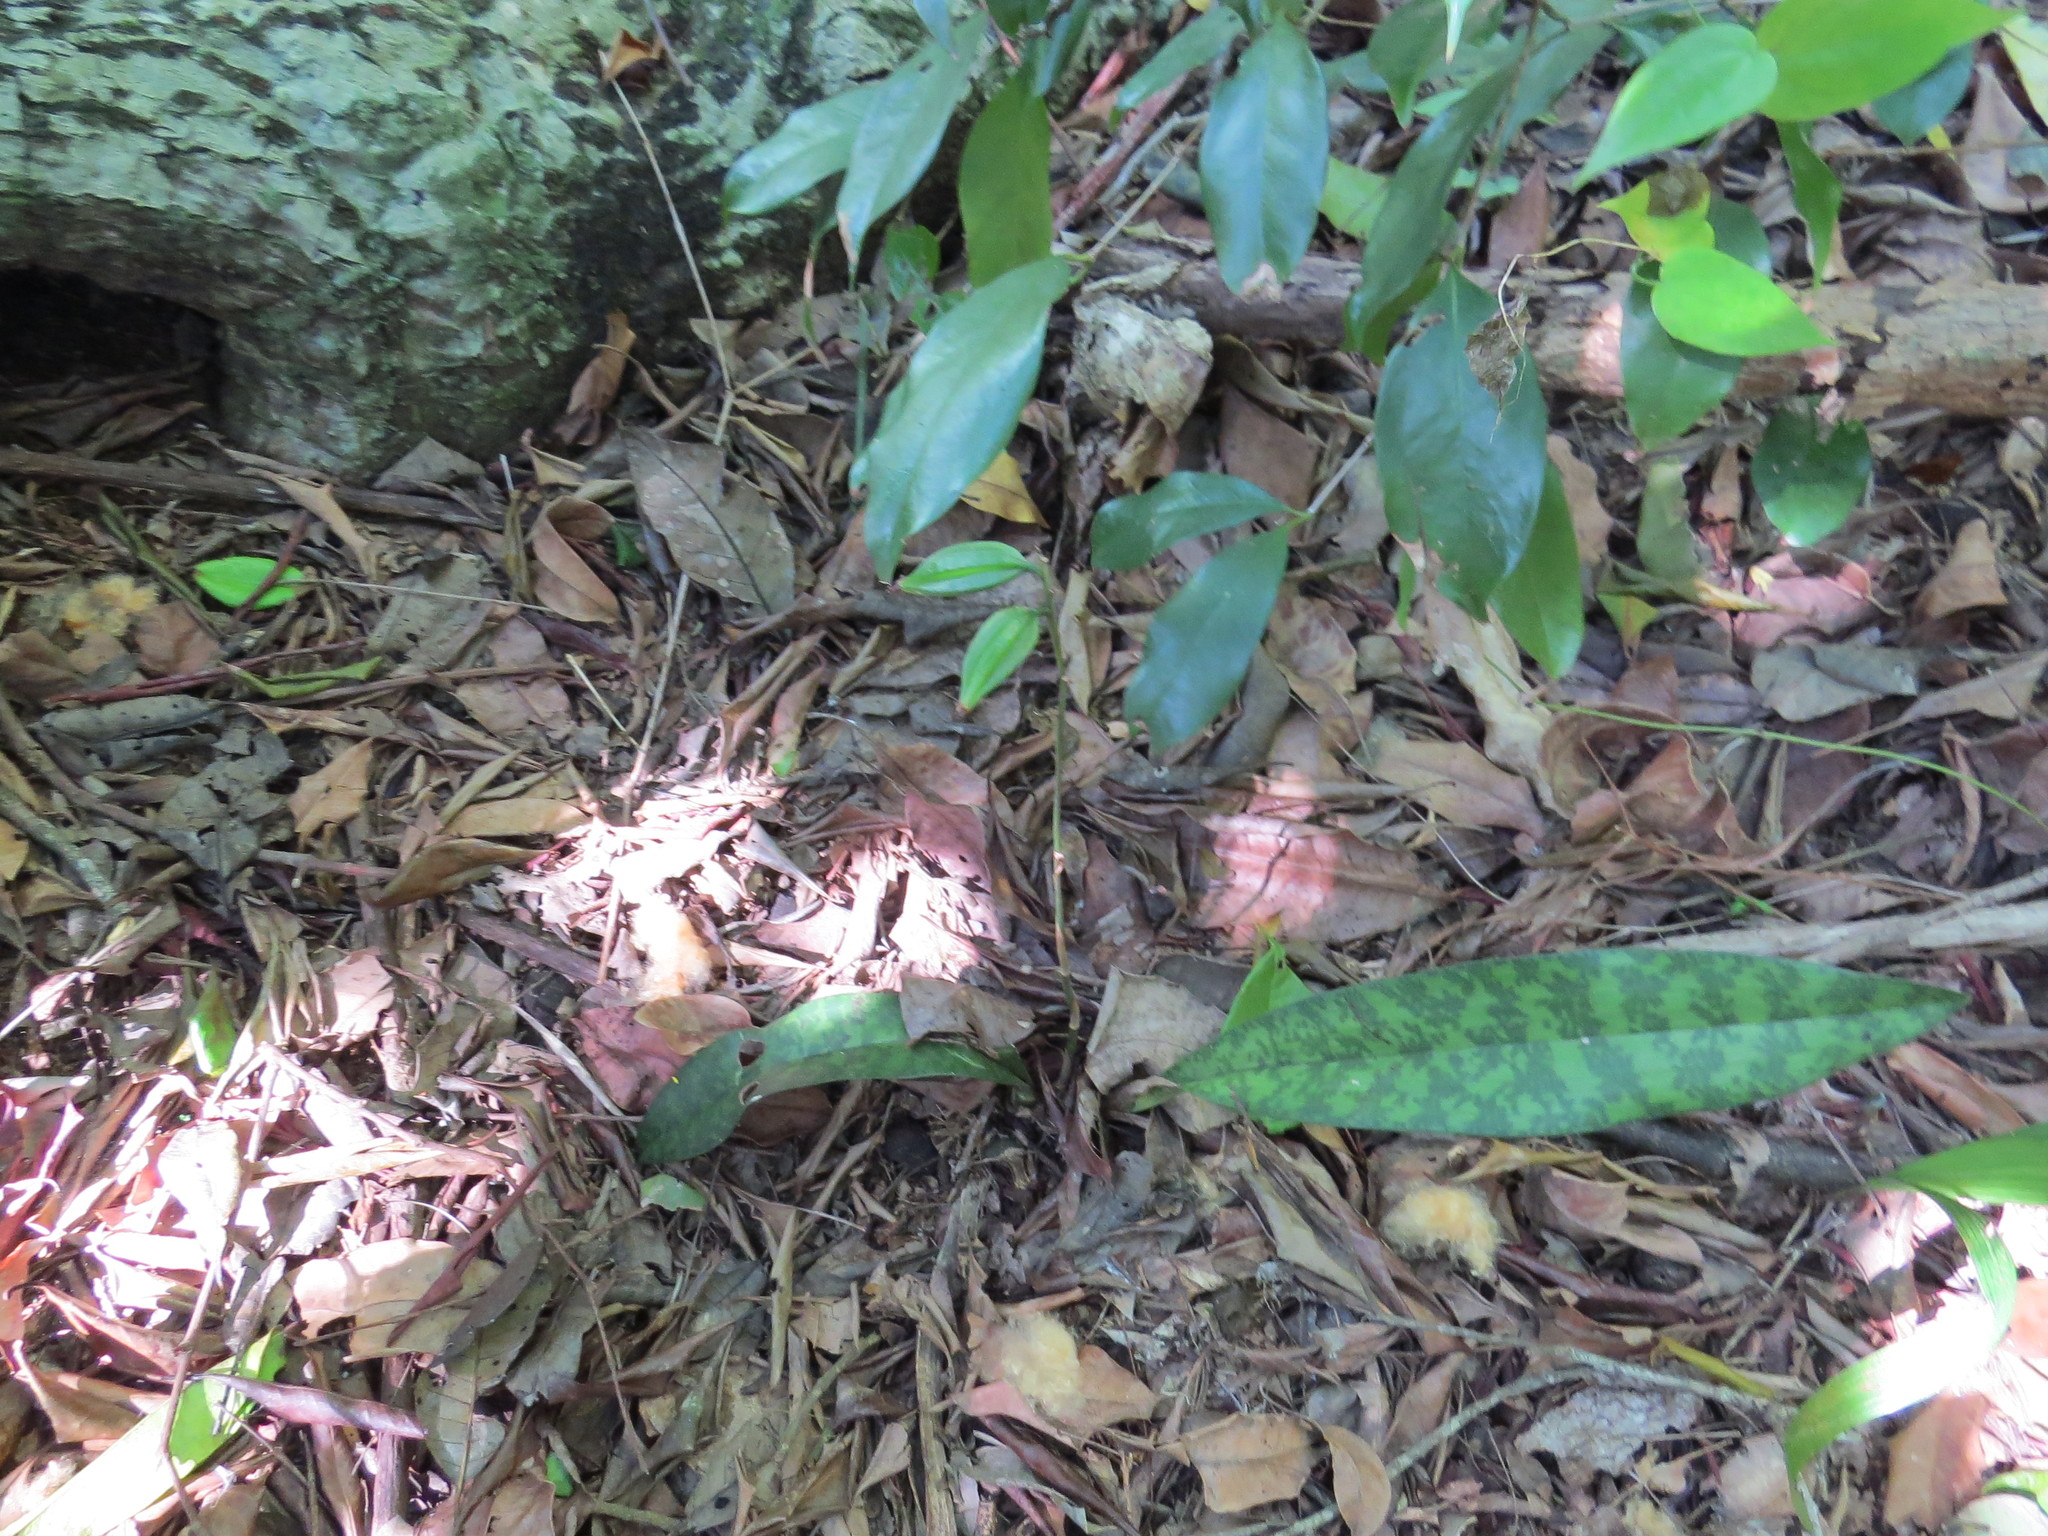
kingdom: Plantae
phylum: Tracheophyta
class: Liliopsida
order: Asparagales
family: Orchidaceae
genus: Eulophia
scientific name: Eulophia maculata
